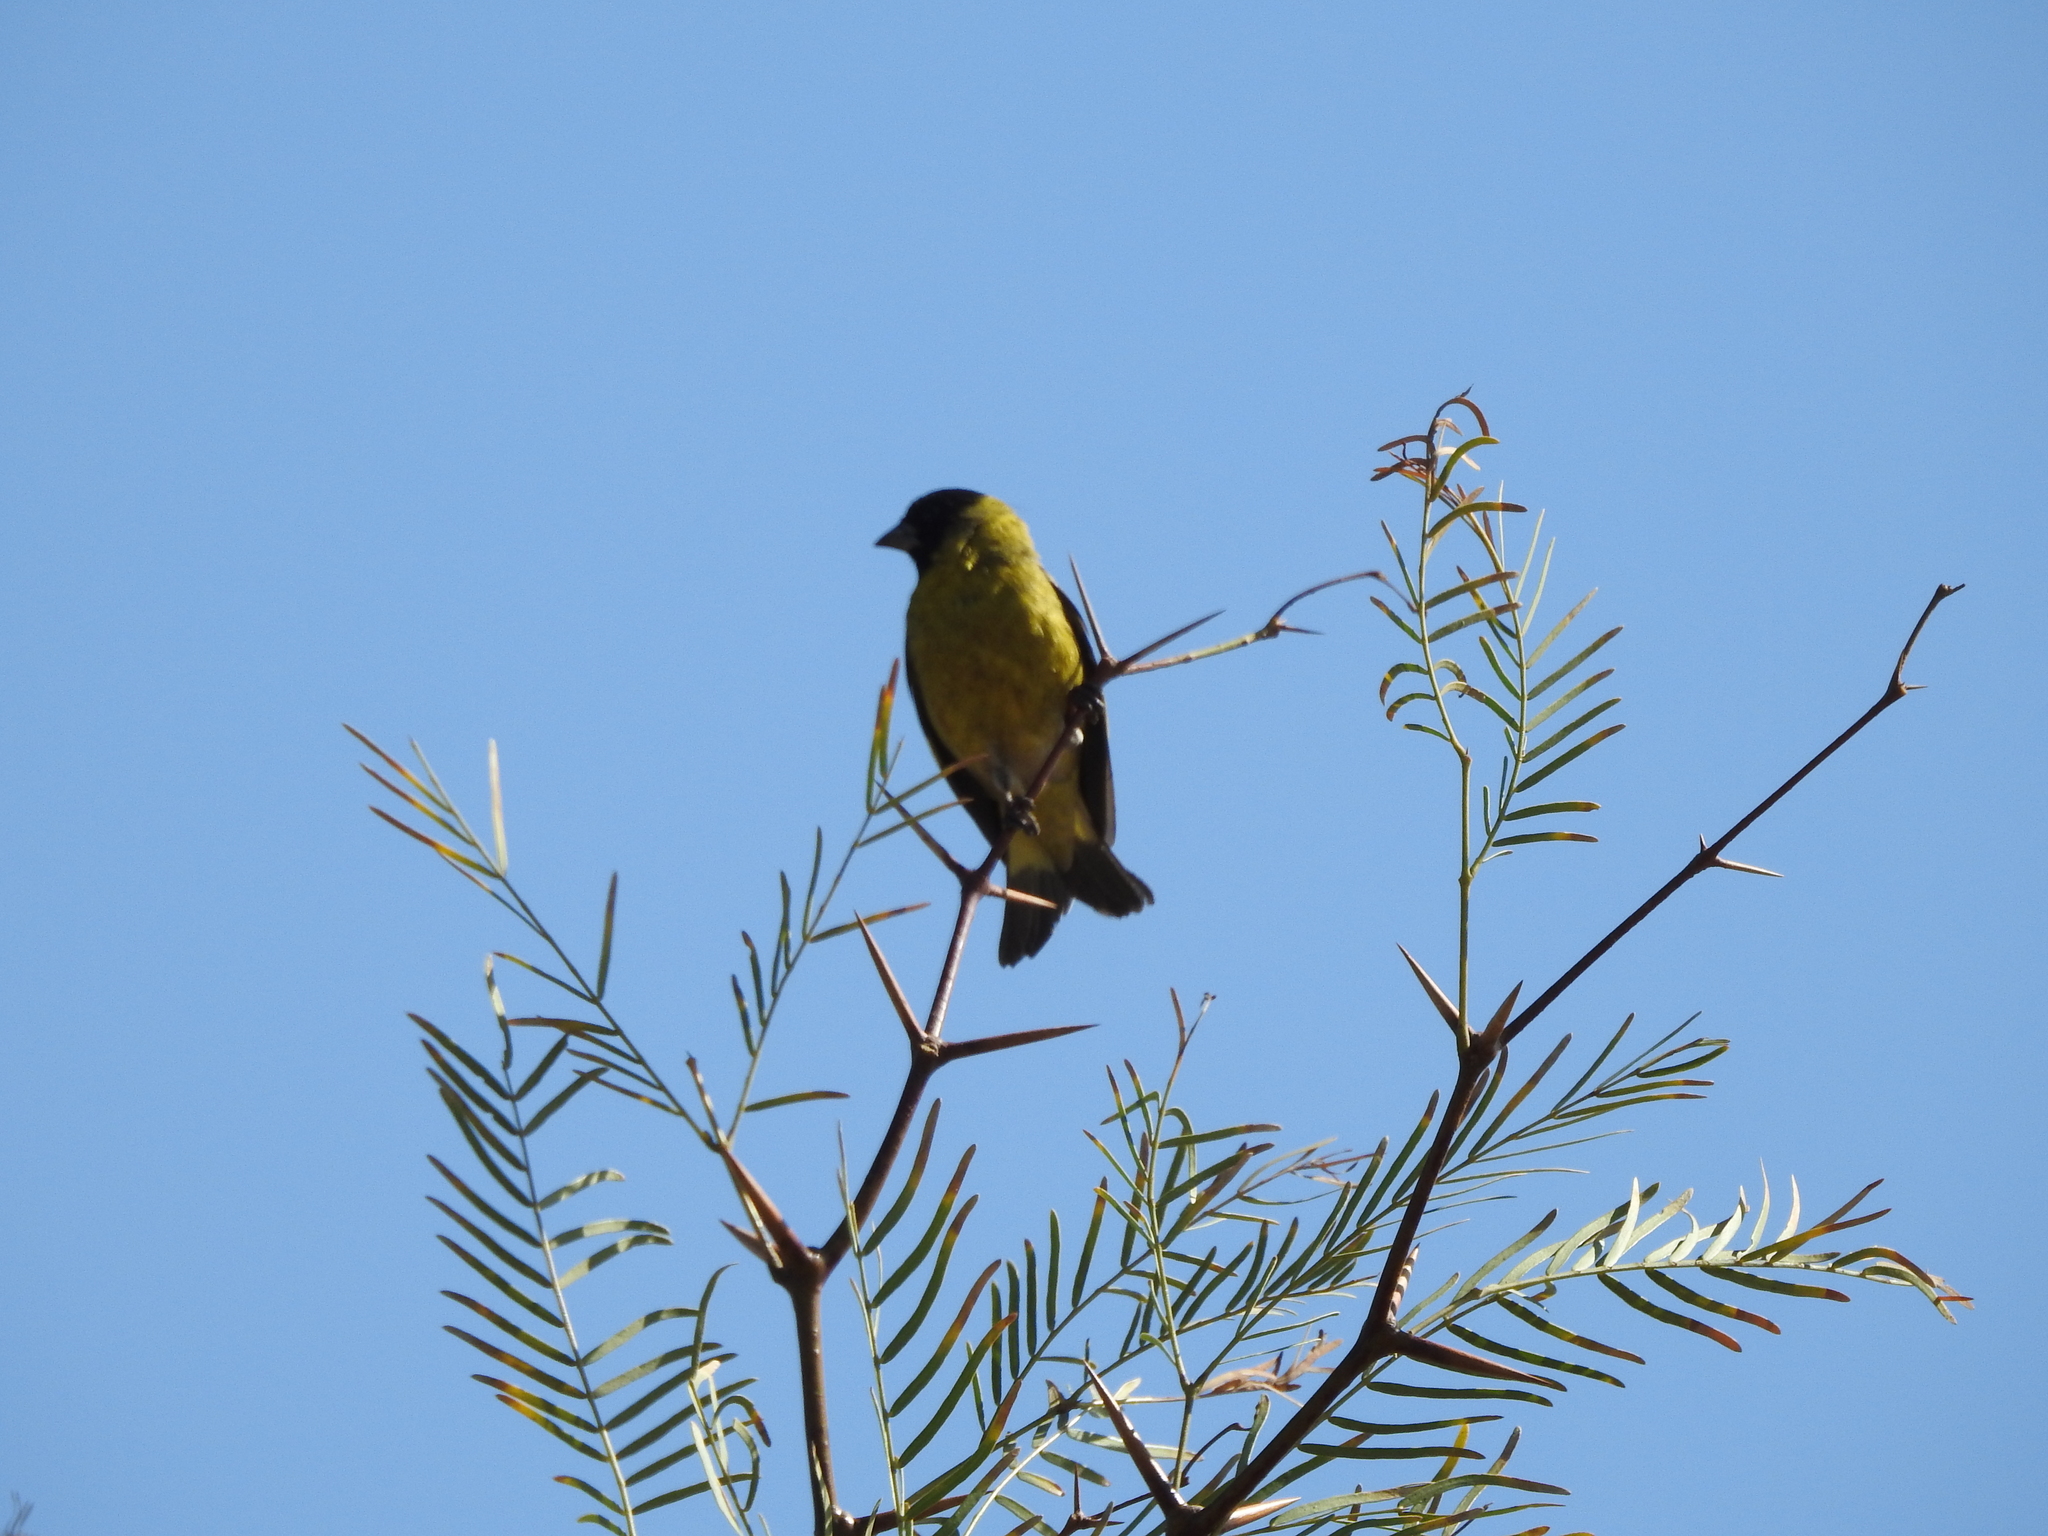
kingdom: Animalia
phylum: Chordata
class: Aves
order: Passeriformes
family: Fringillidae
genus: Spinus
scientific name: Spinus magellanicus
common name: Hooded siskin
